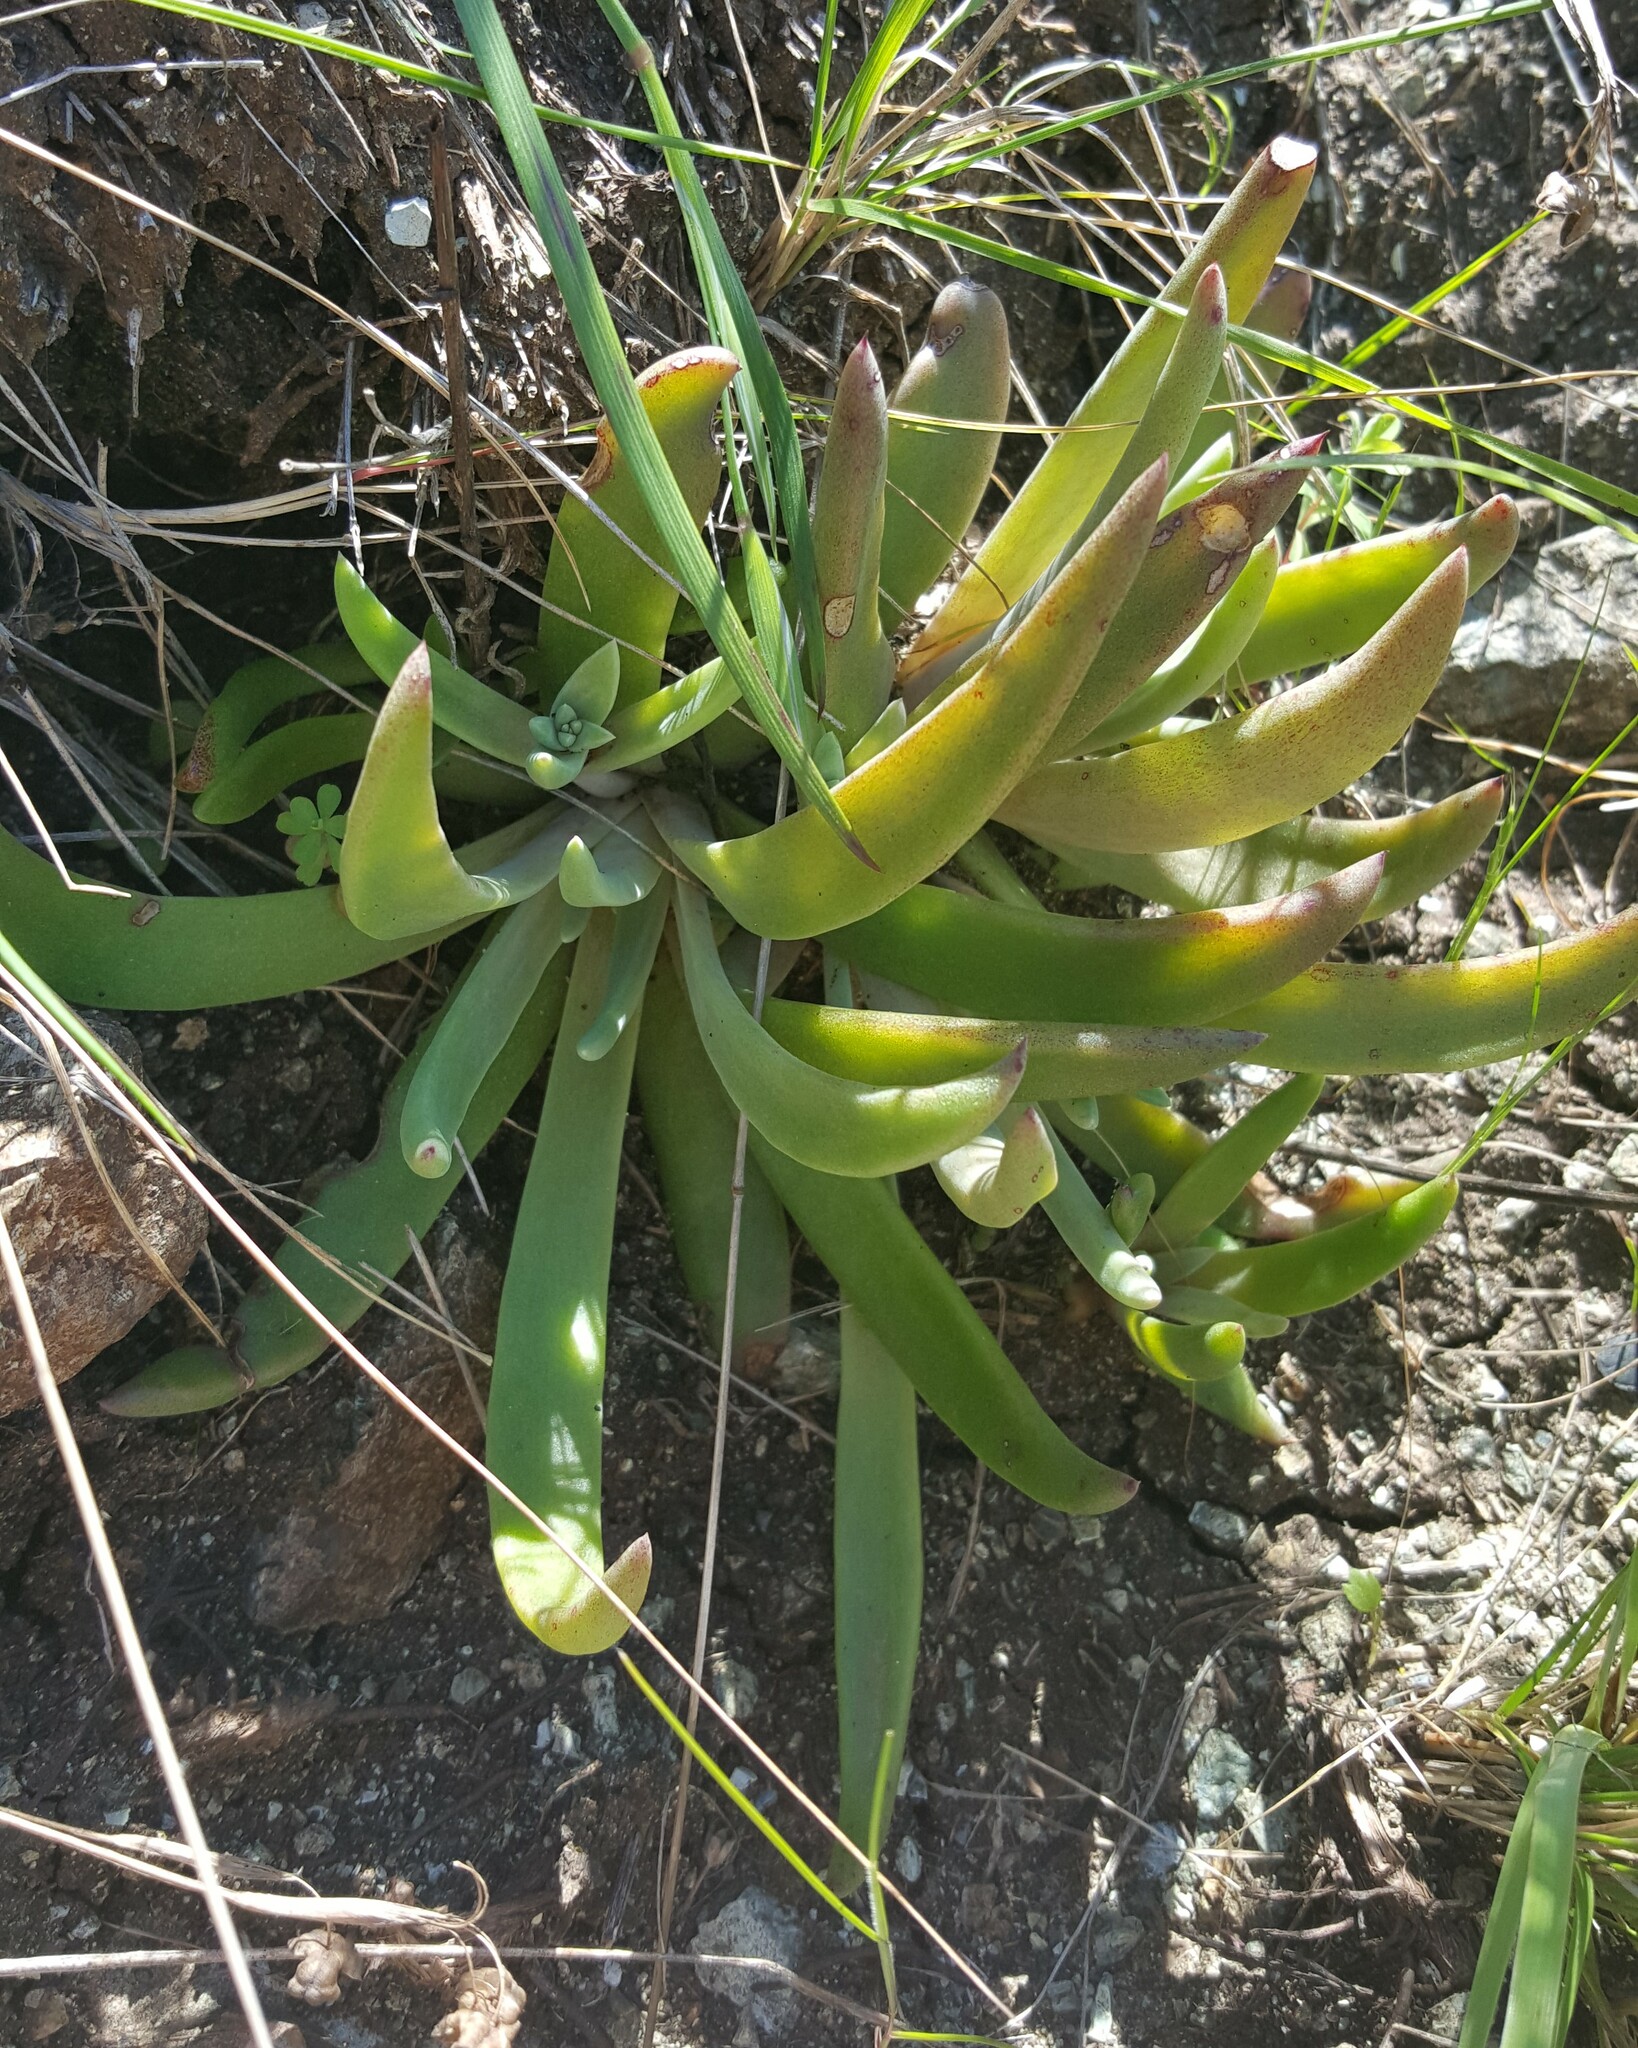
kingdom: Plantae
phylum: Tracheophyta
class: Magnoliopsida
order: Saxifragales
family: Crassulaceae
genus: Dudleya
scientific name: Dudleya abramsii
